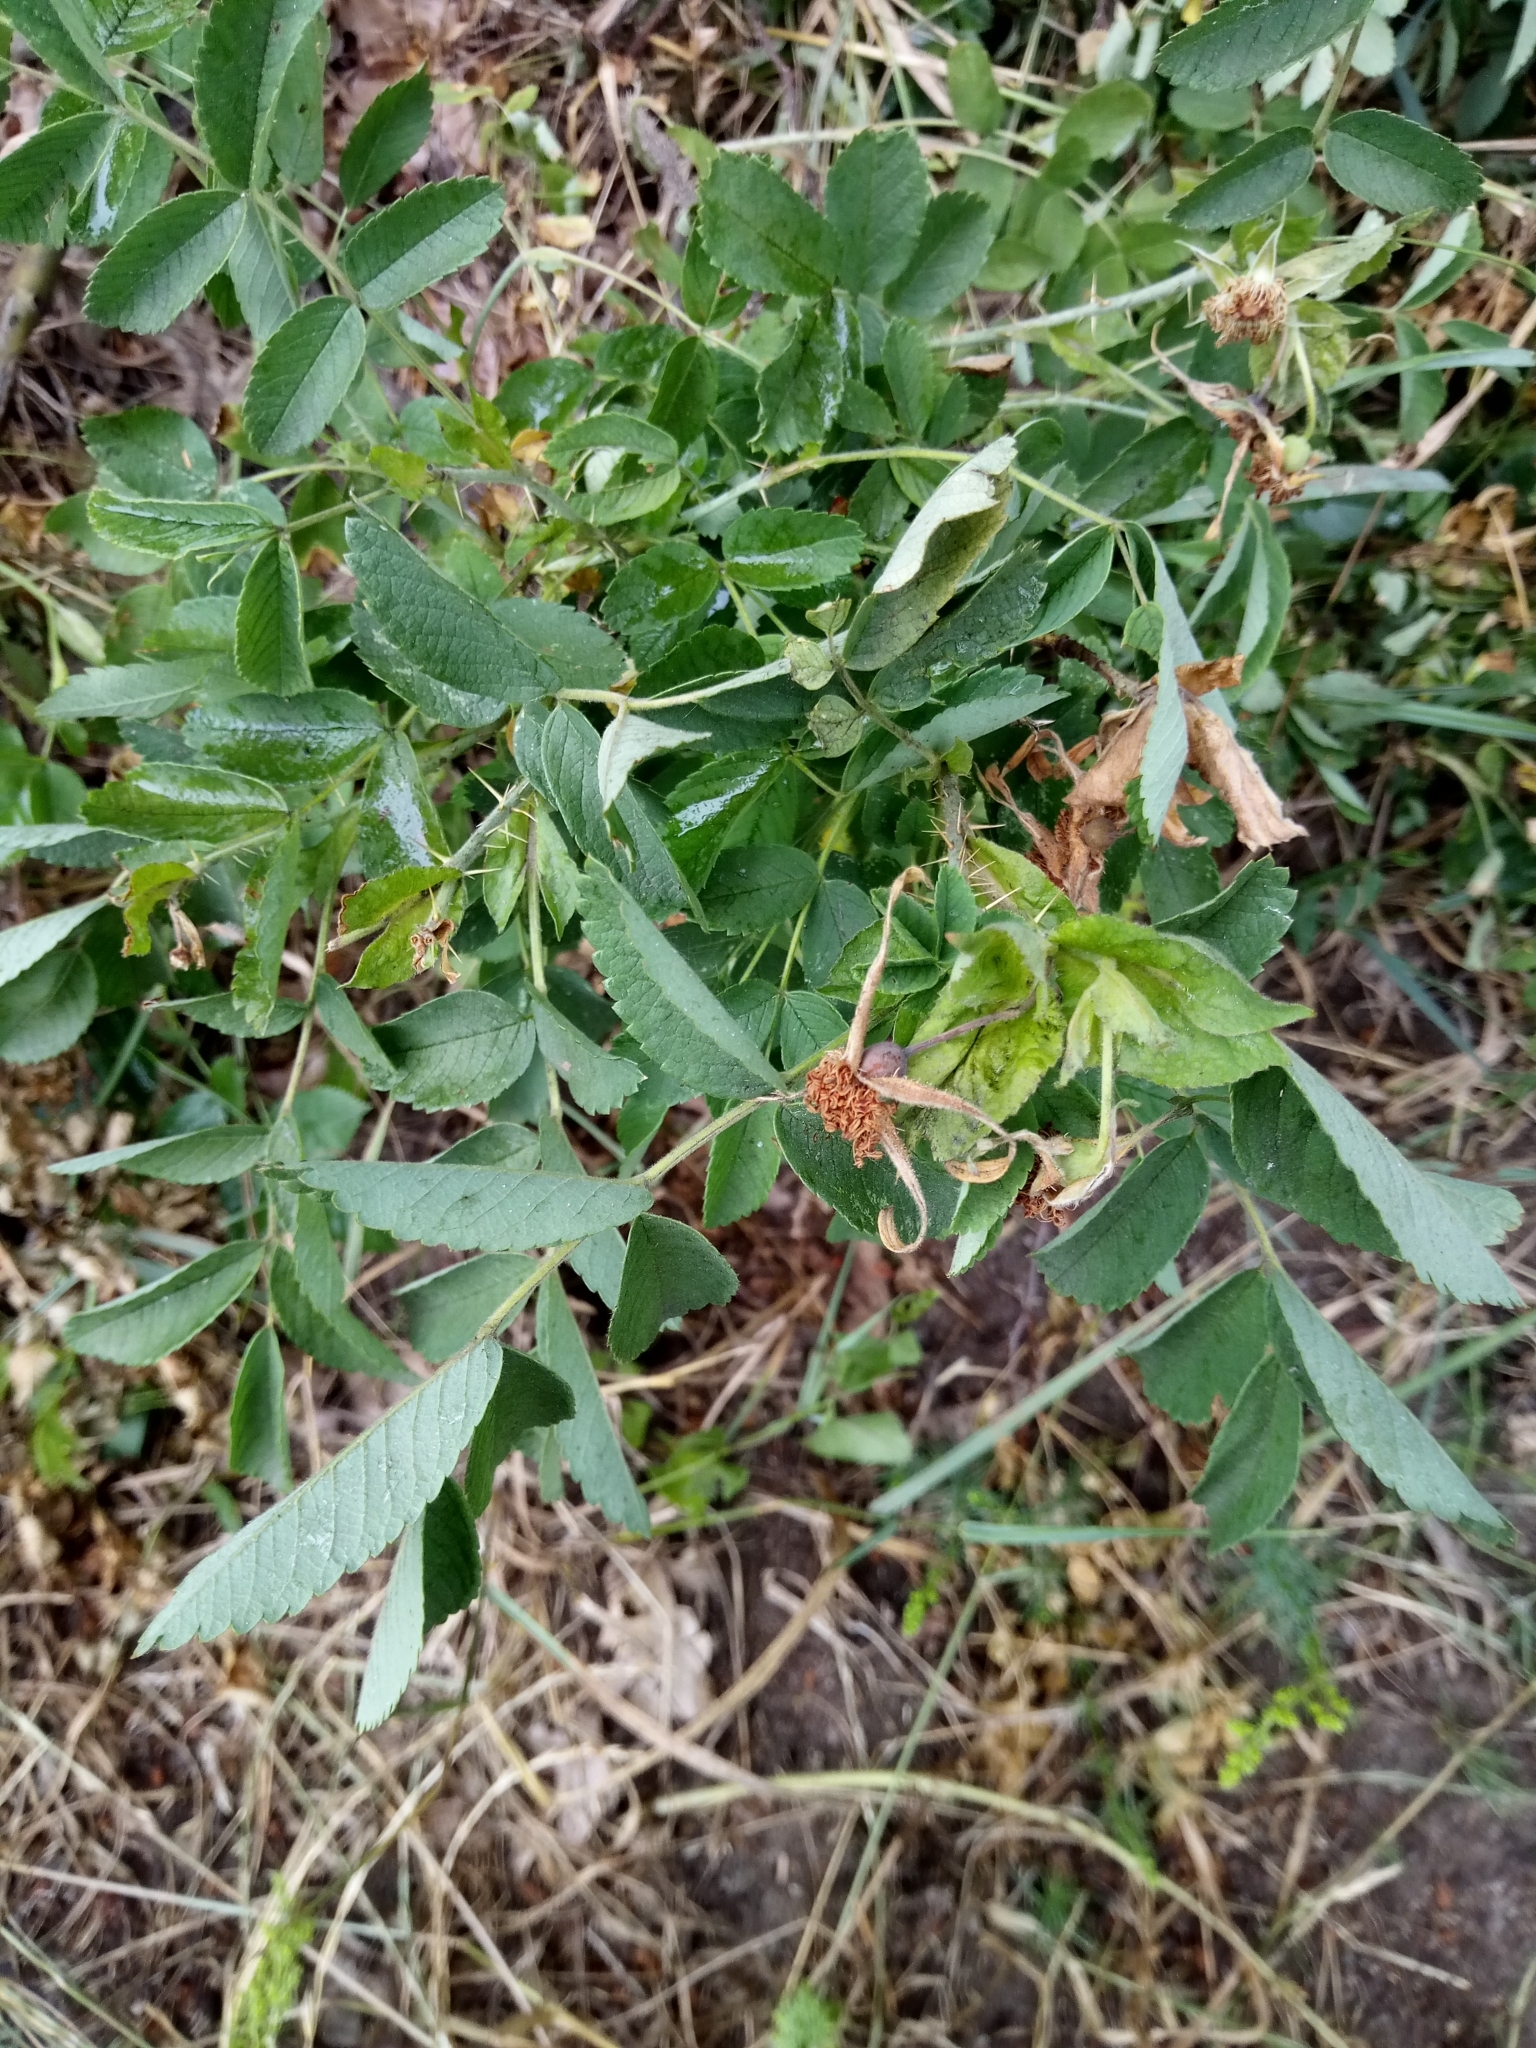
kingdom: Plantae
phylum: Tracheophyta
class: Magnoliopsida
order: Rosales
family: Rosaceae
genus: Rosa
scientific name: Rosa rugosa
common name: Japanese rose
